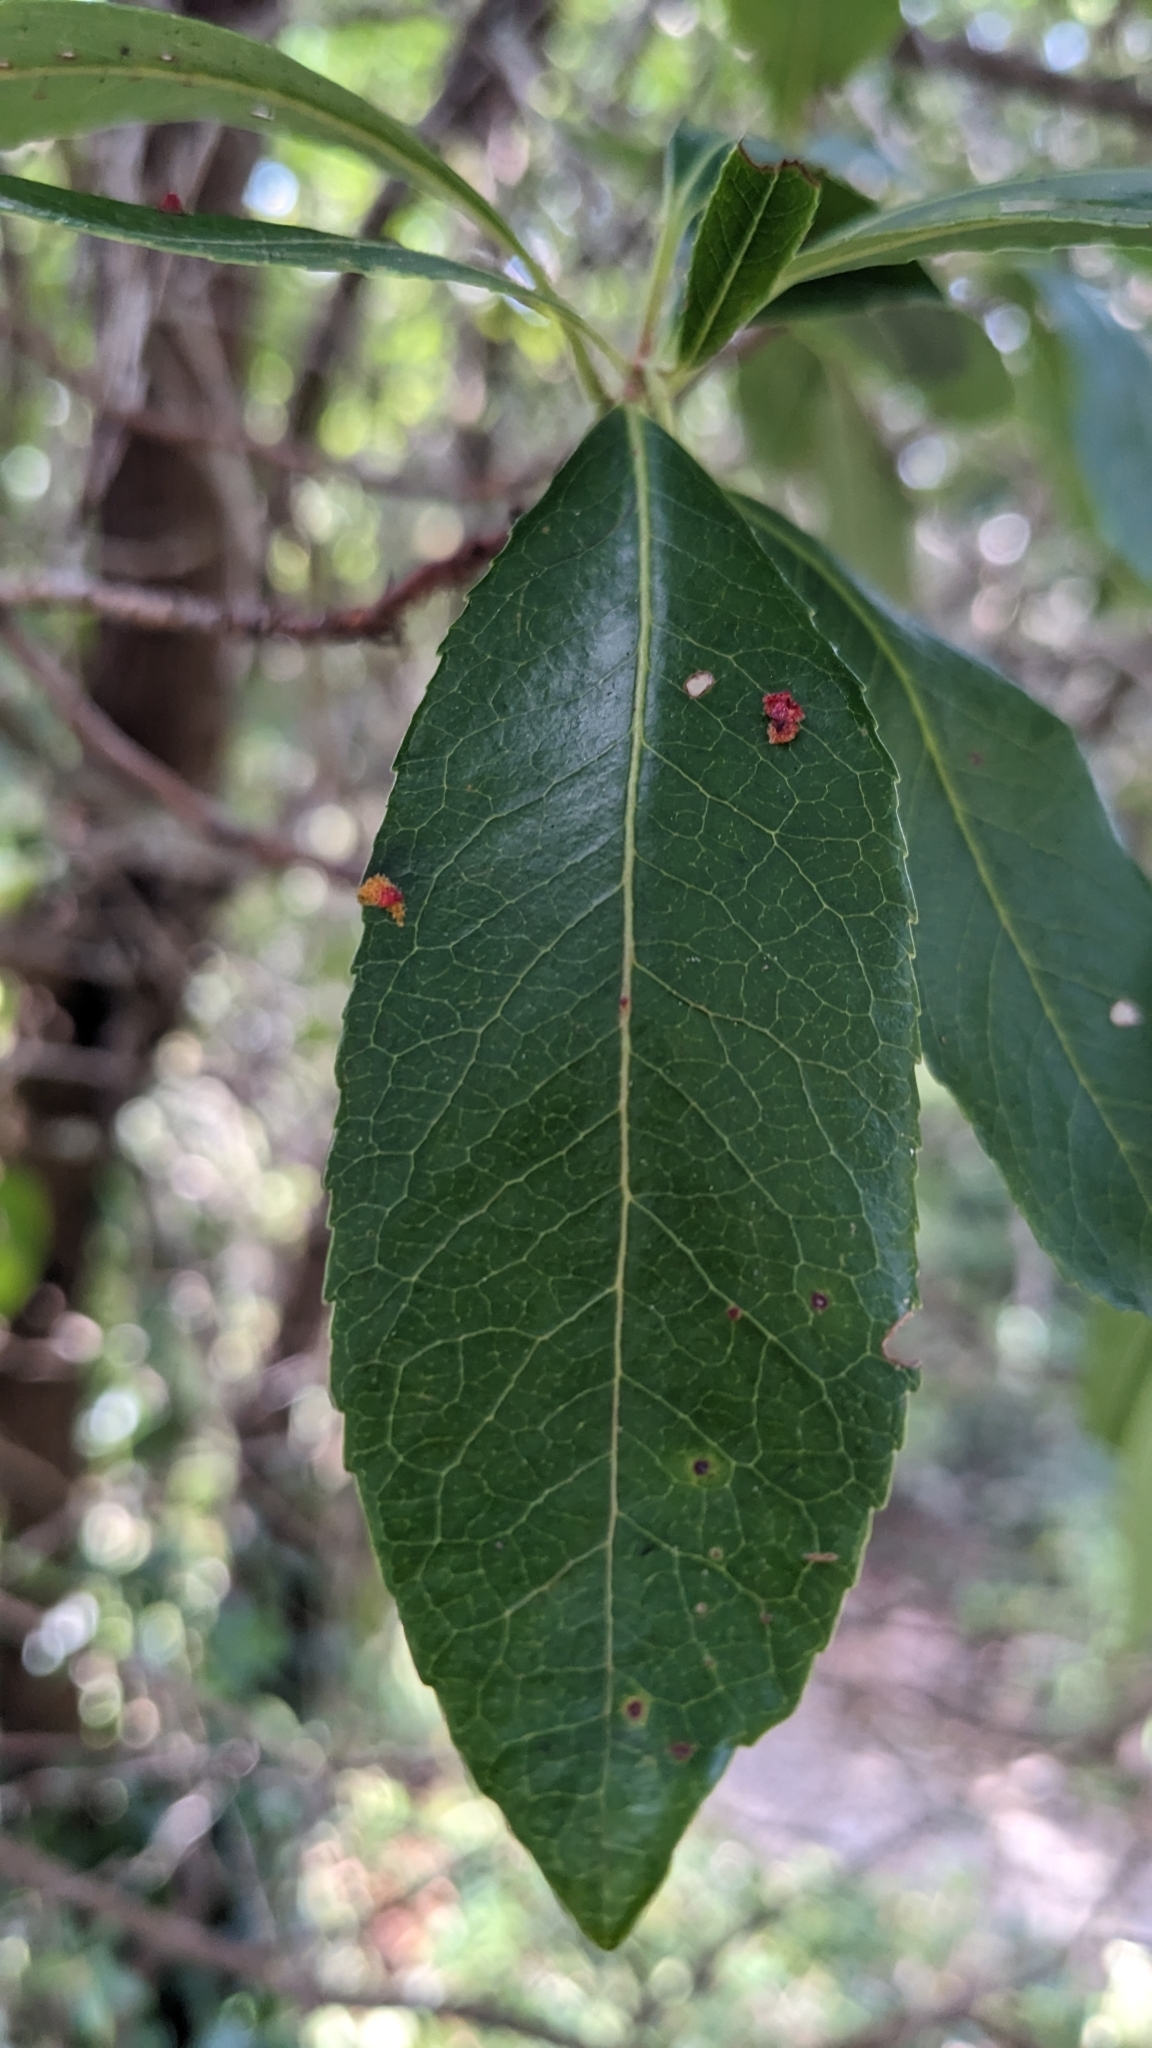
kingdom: Plantae
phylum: Tracheophyta
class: Magnoliopsida
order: Ericales
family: Ericaceae
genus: Arbutus
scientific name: Arbutus unedo
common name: Strawberry-tree
